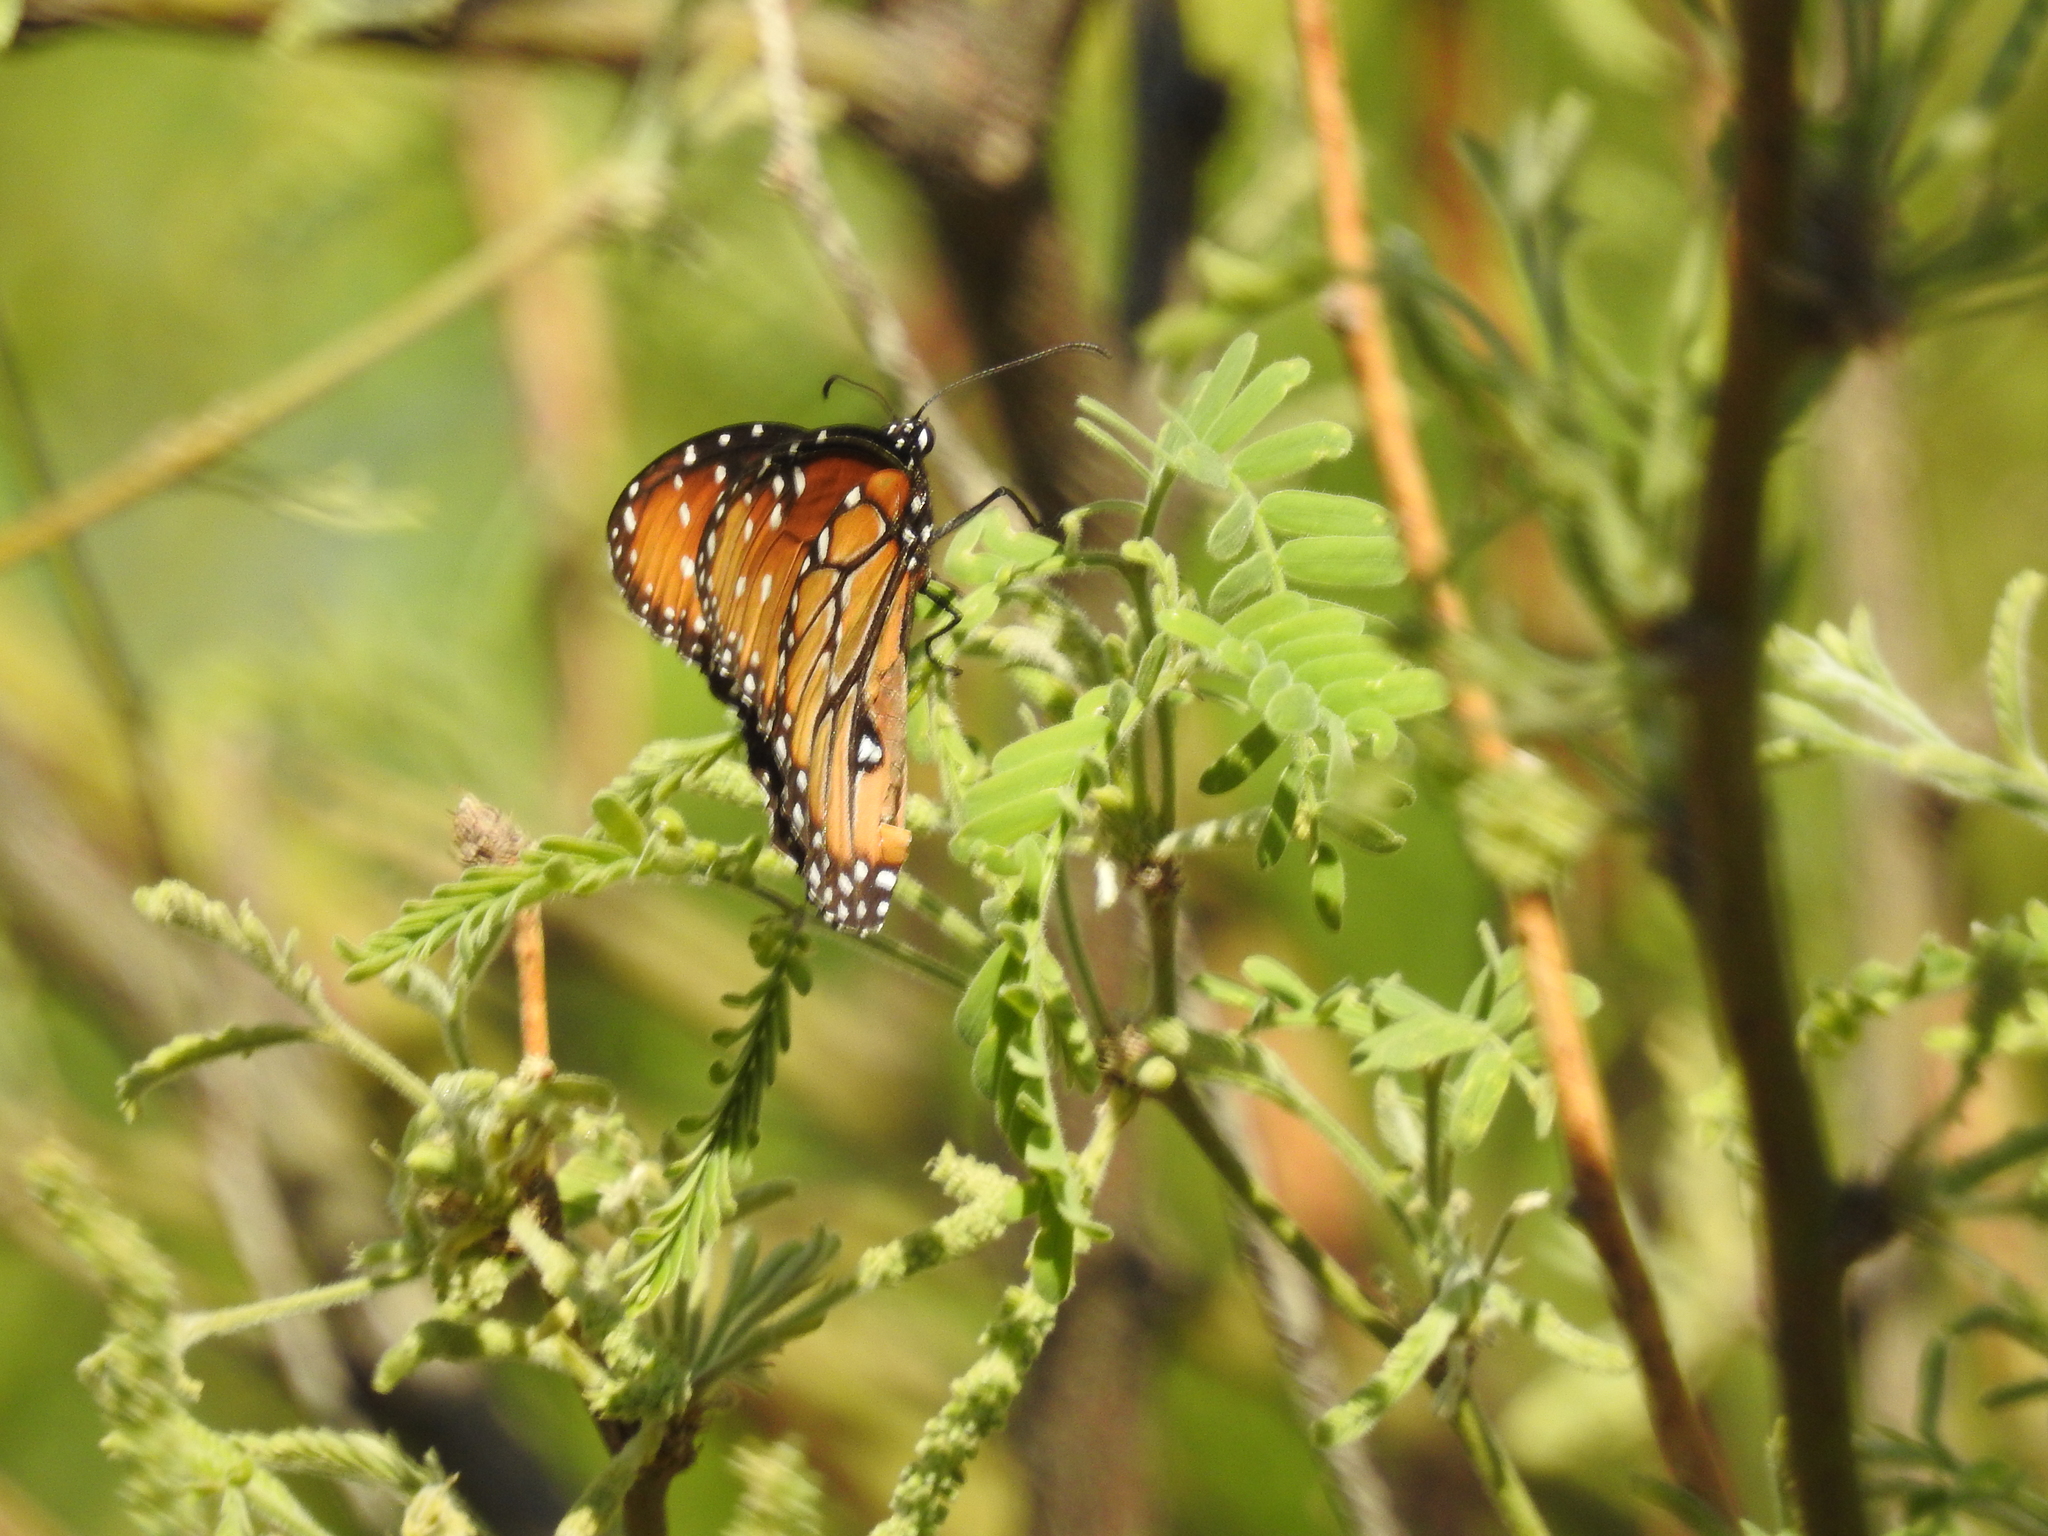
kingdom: Animalia
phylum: Arthropoda
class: Insecta
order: Lepidoptera
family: Nymphalidae
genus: Danaus
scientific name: Danaus gilippus
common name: Queen
